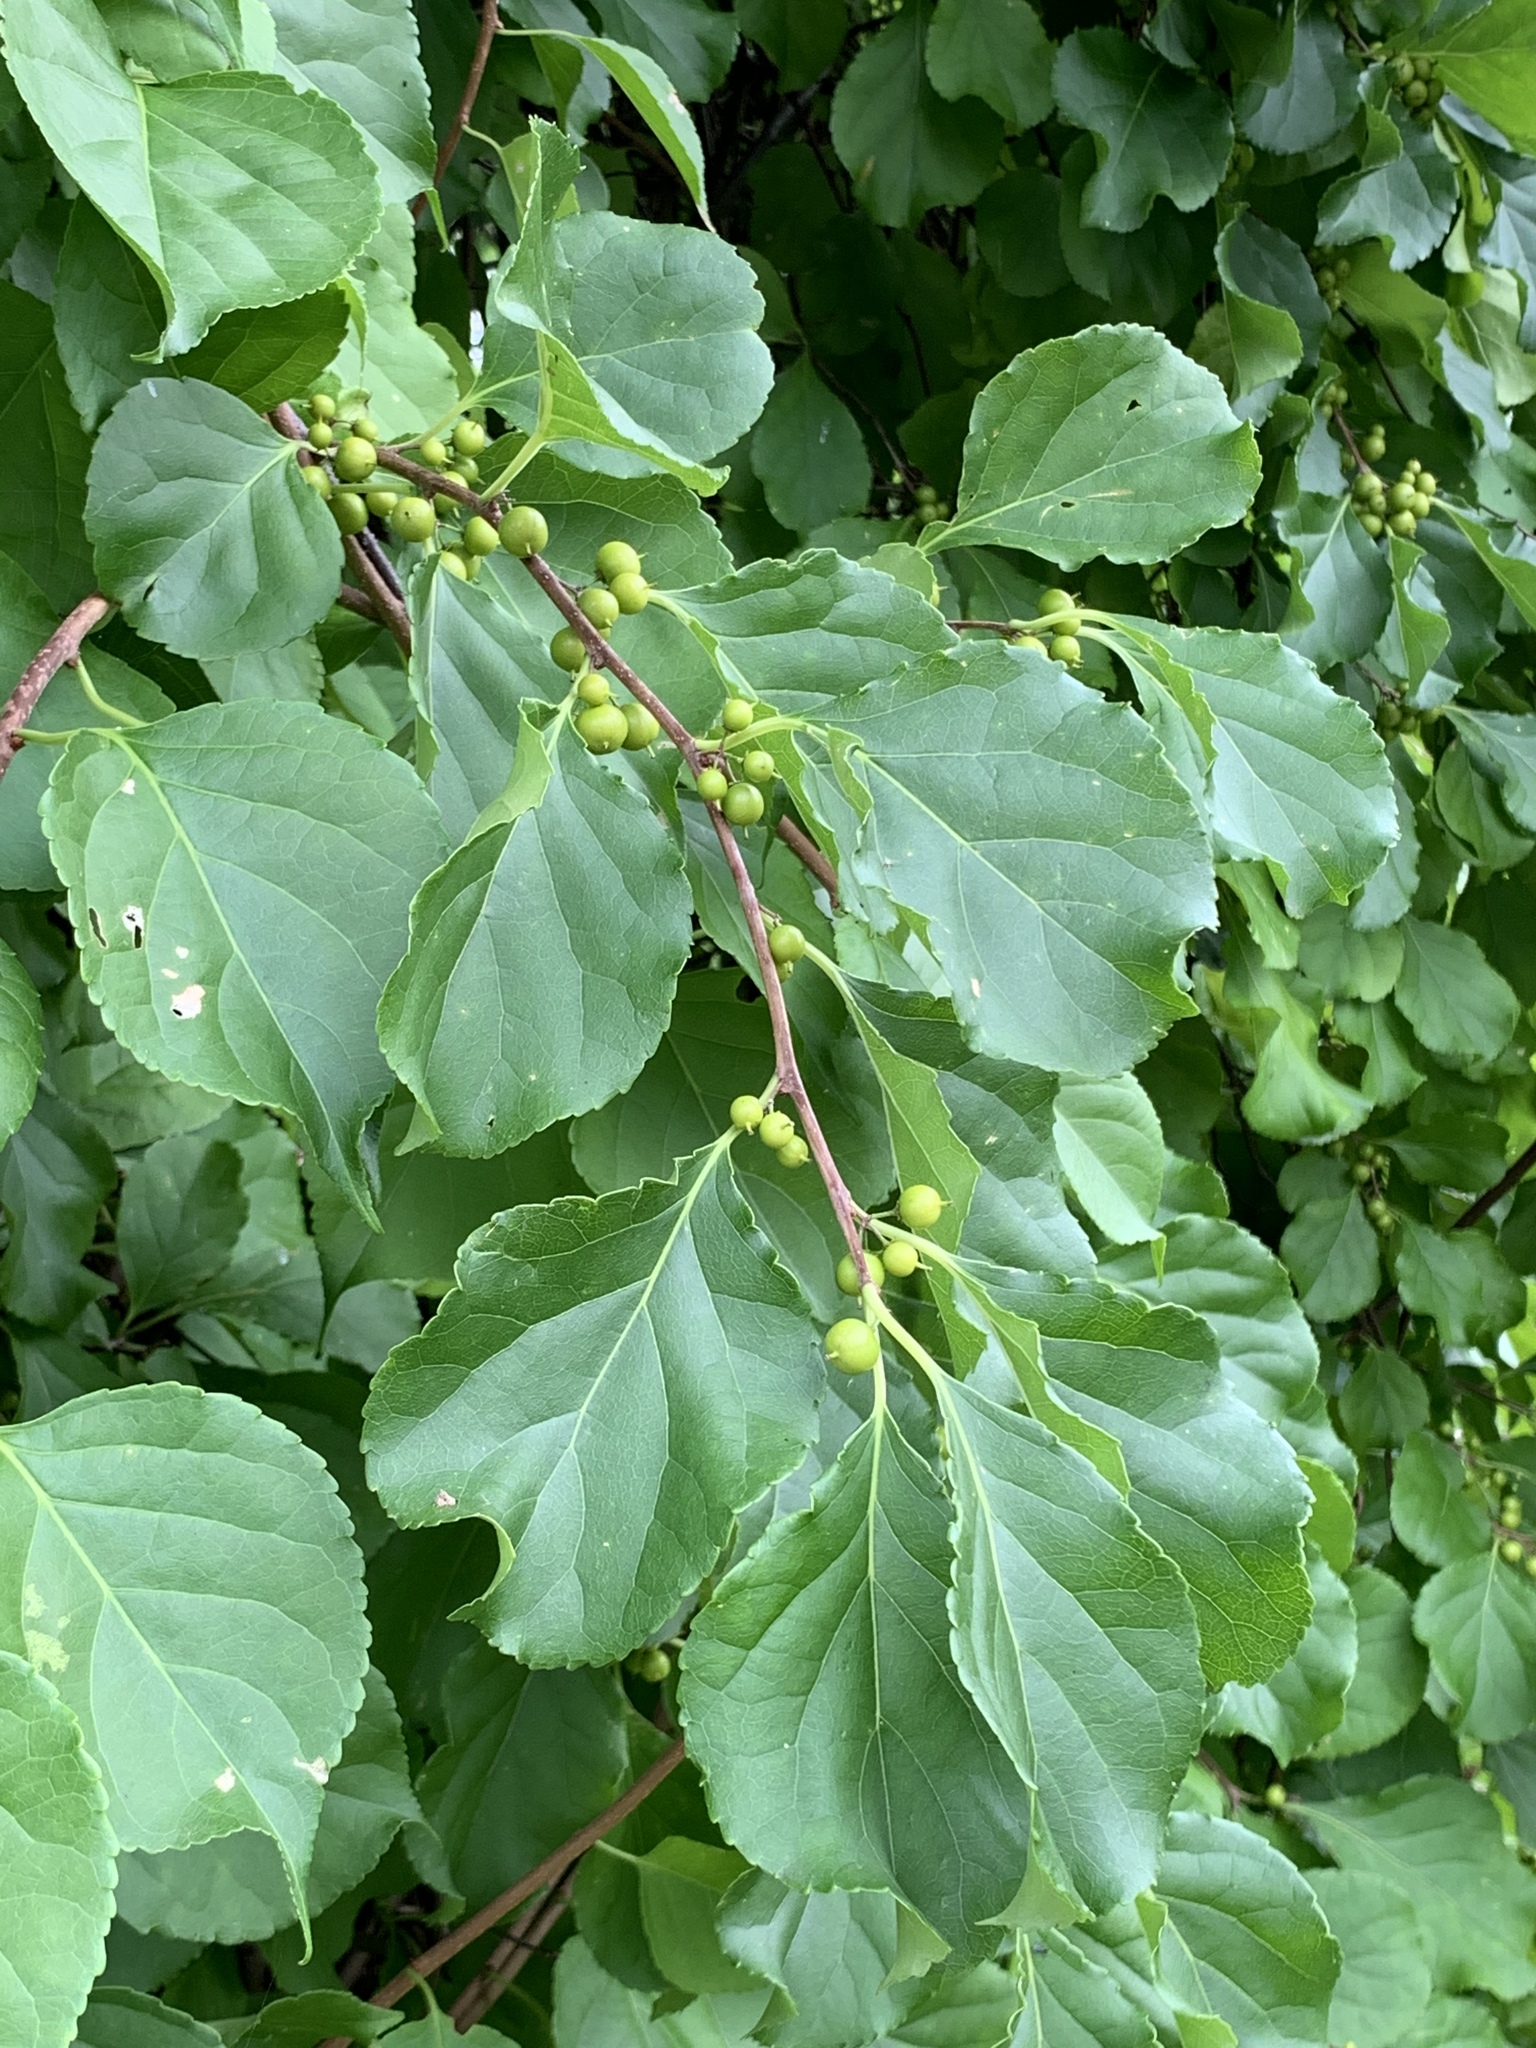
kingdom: Plantae
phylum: Tracheophyta
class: Magnoliopsida
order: Celastrales
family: Celastraceae
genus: Celastrus
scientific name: Celastrus orbiculatus
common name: Oriental bittersweet
